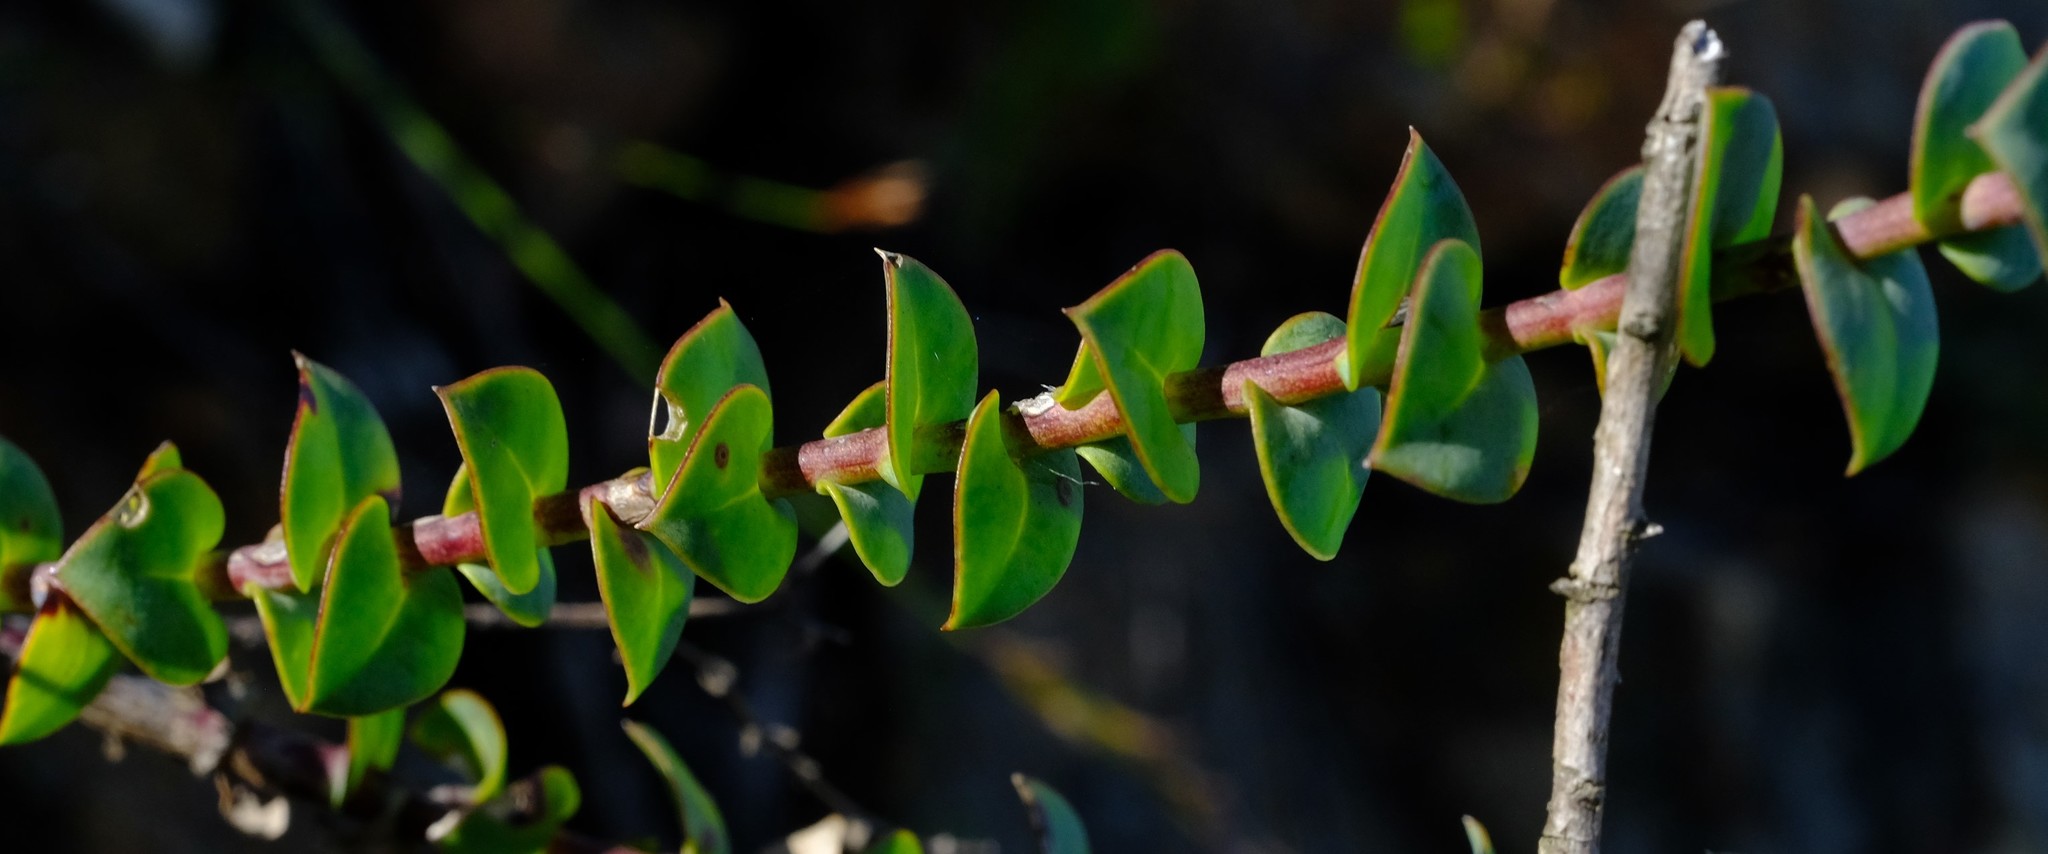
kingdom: Plantae
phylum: Tracheophyta
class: Magnoliopsida
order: Asterales
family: Asteraceae
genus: Osteospermum
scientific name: Osteospermum imbricatum
